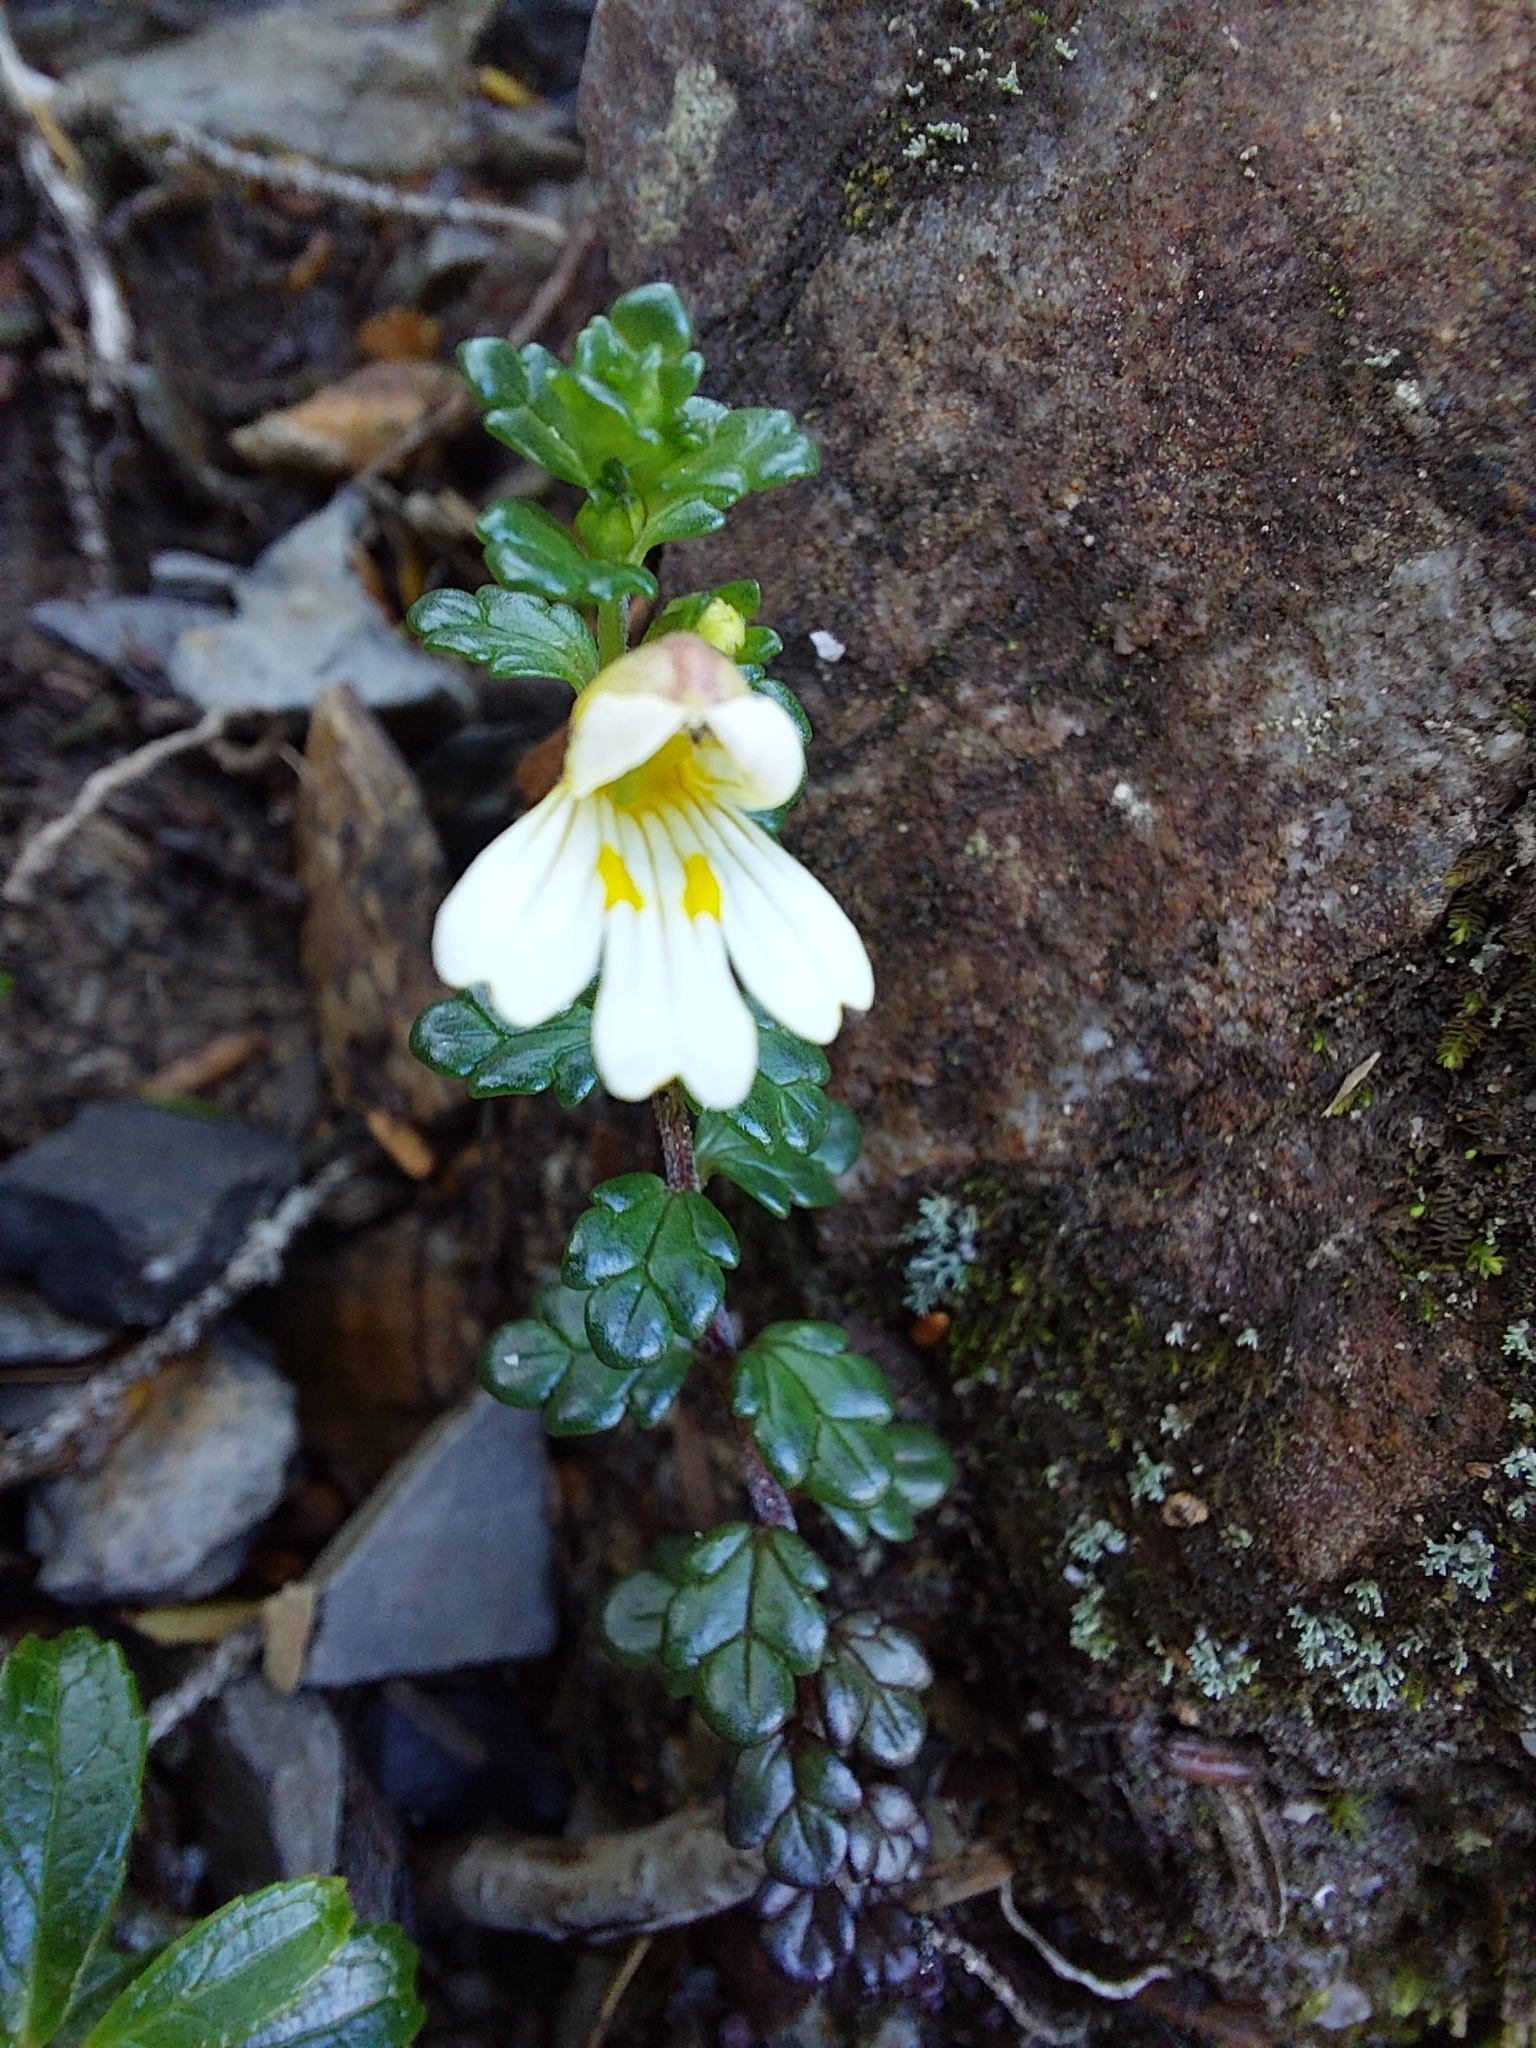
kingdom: Plantae
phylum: Tracheophyta
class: Magnoliopsida
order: Lamiales
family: Orobanchaceae
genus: Euphrasia
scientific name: Euphrasia transmorrisonensis
